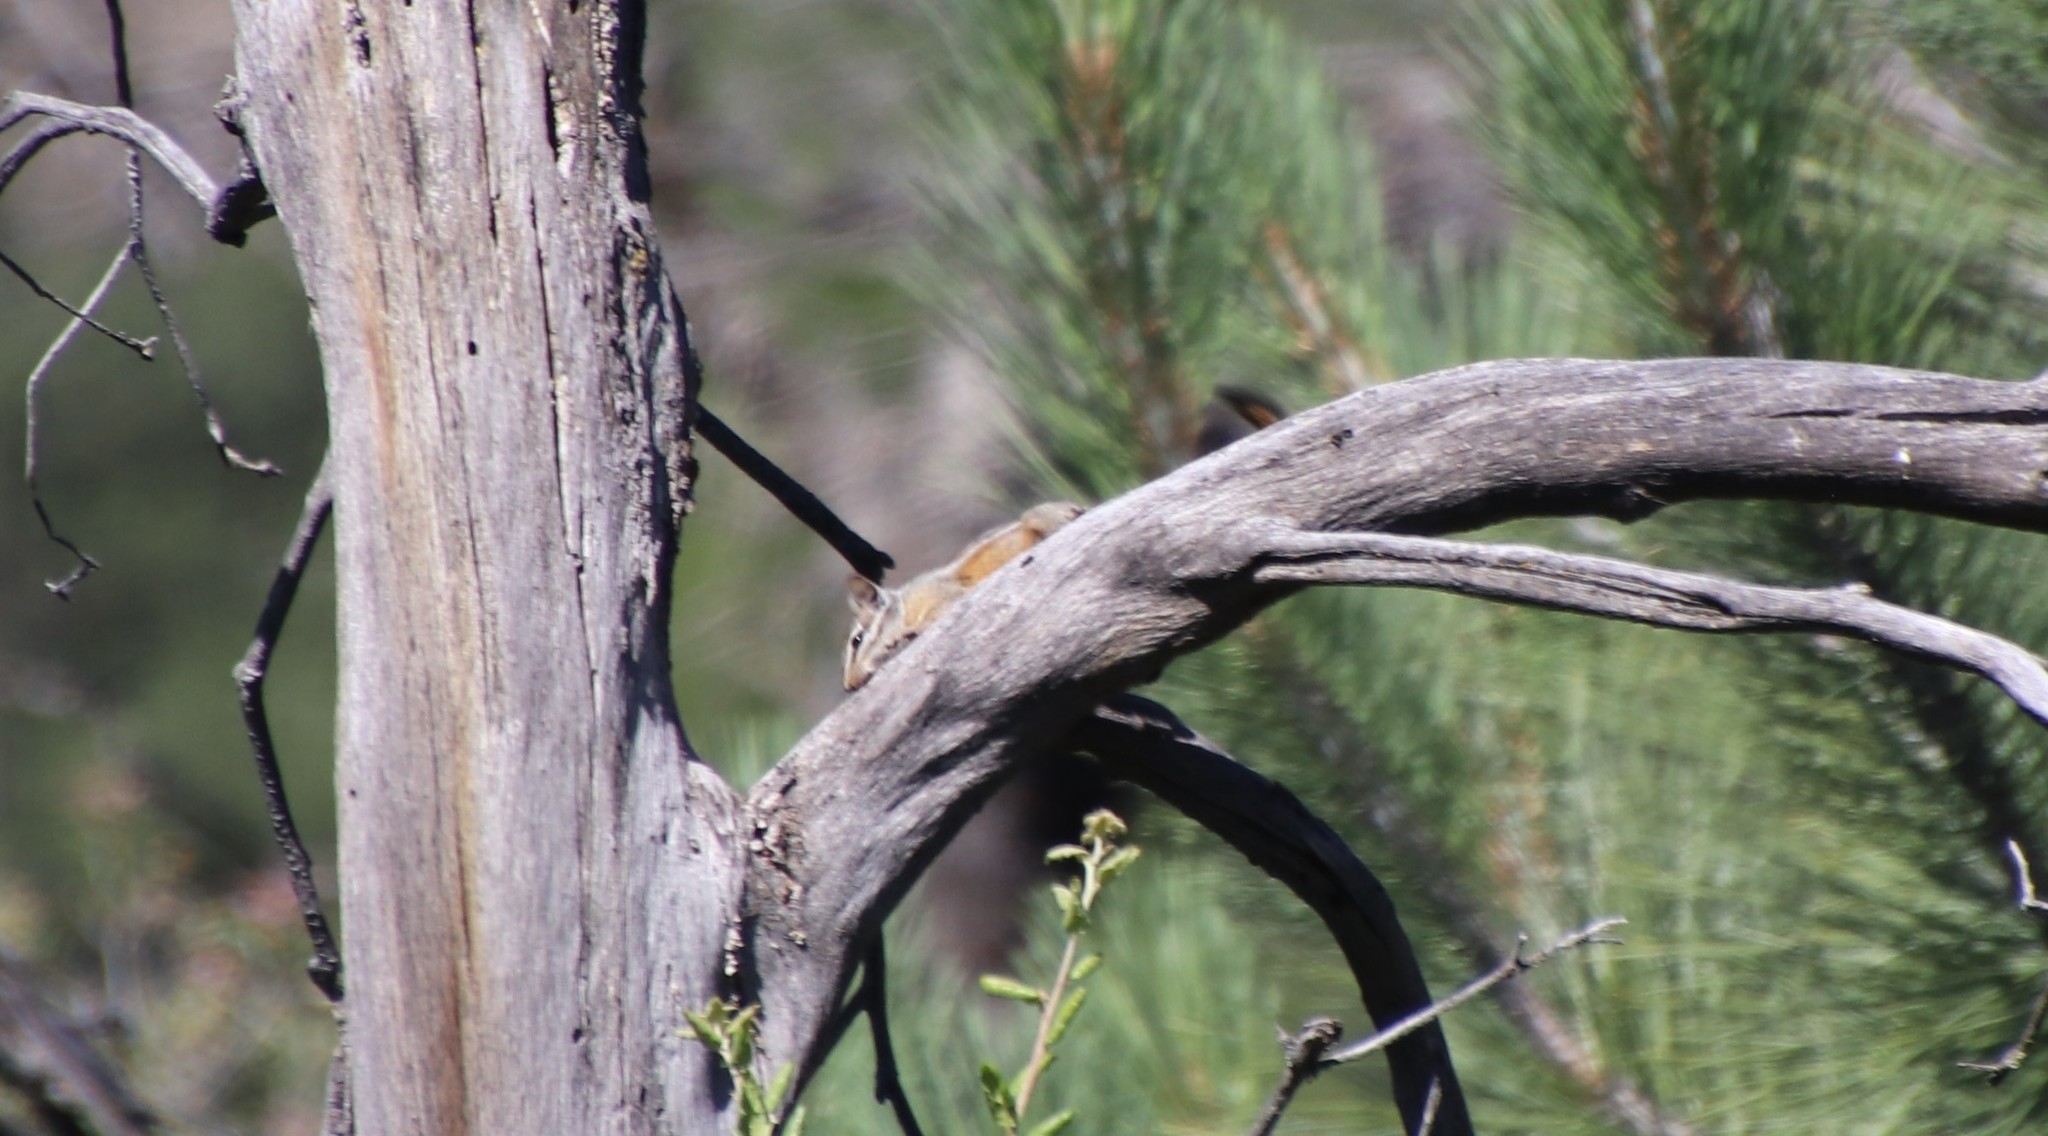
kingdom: Animalia
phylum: Chordata
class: Mammalia
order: Rodentia
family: Sciuridae
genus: Tamias
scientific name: Tamias merriami
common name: Merriam's chipmunk
